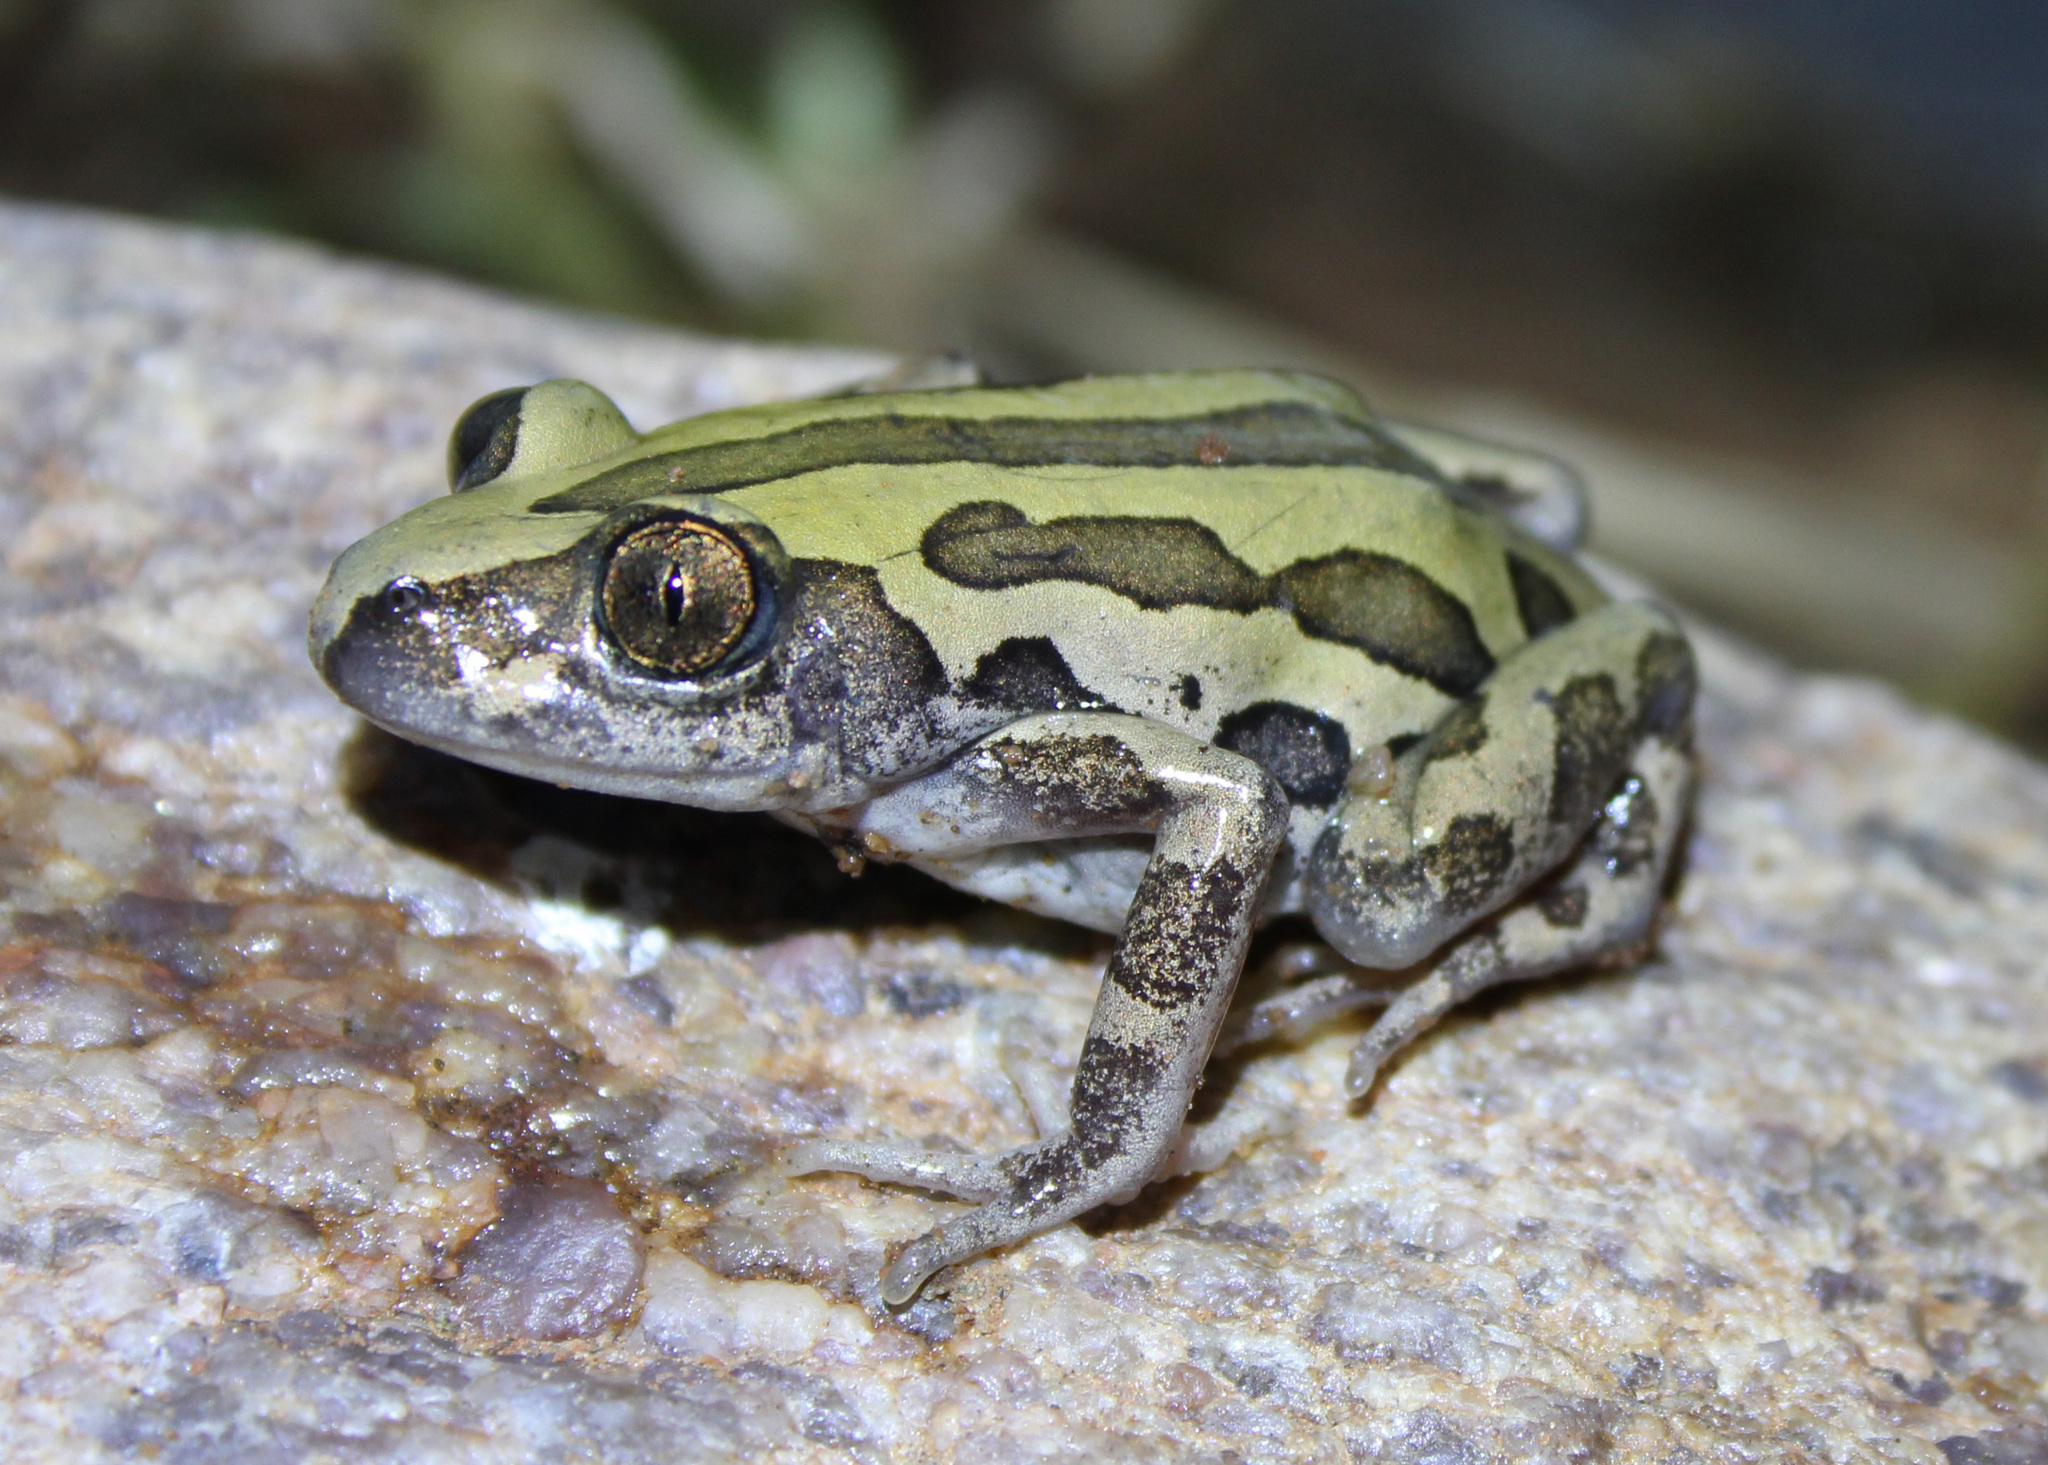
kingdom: Animalia
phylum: Chordata
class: Amphibia
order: Anura
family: Hyperoliidae
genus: Kassina
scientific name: Kassina senegalensis
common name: Senegal land frog
